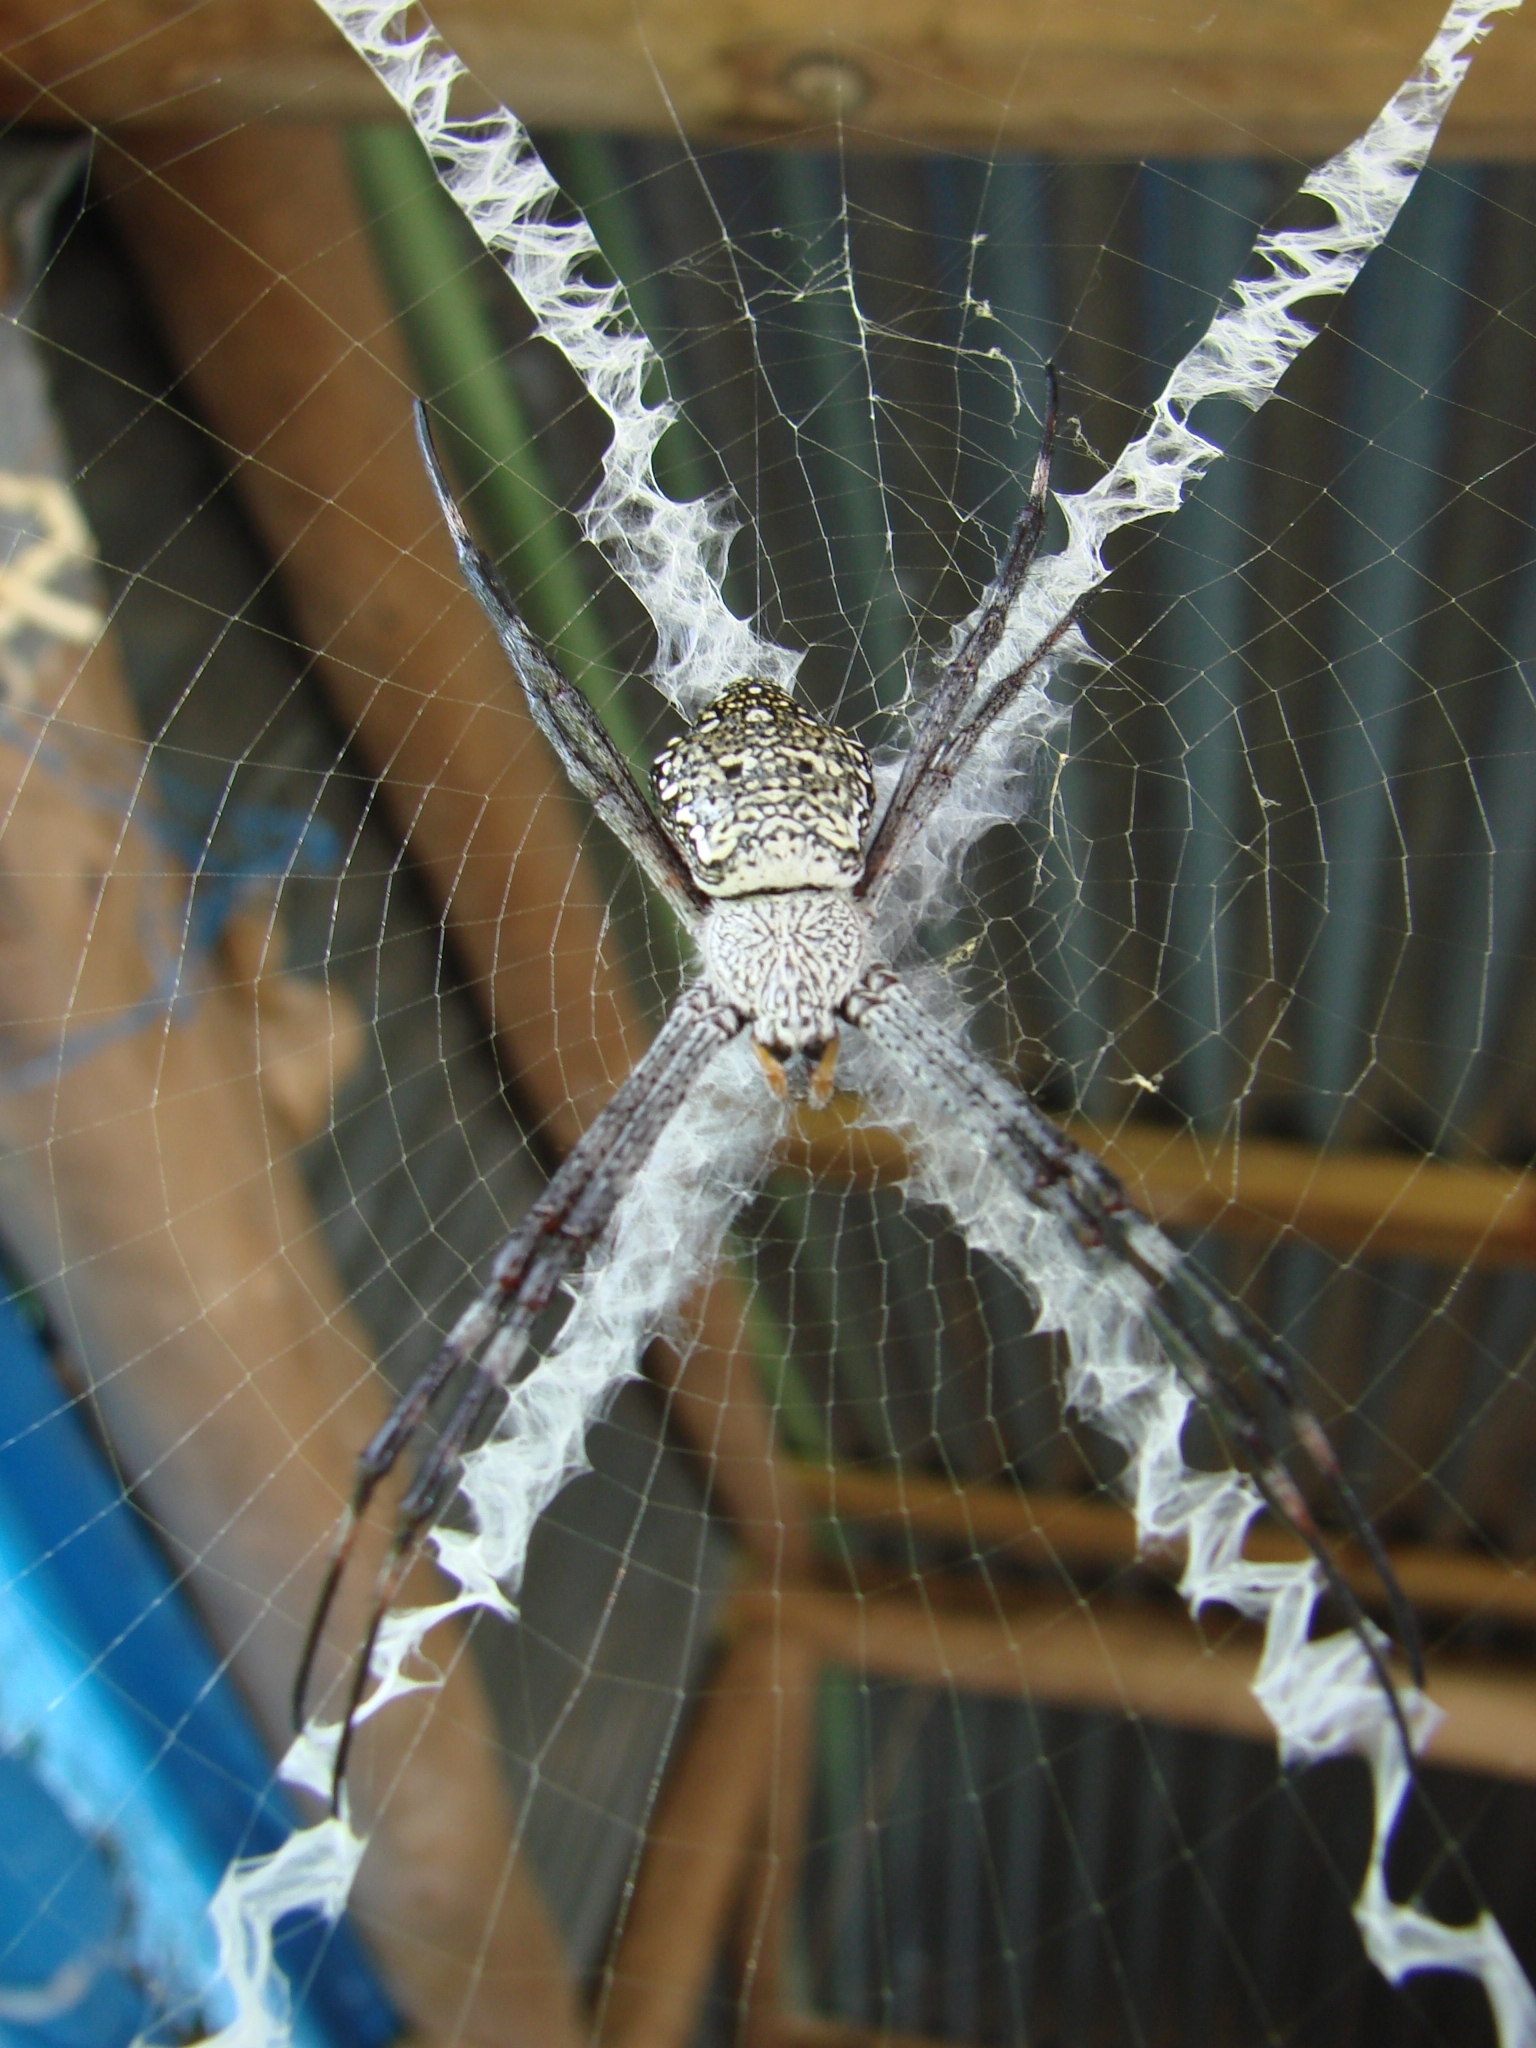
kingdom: Animalia
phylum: Arthropoda
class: Arachnida
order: Araneae
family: Araneidae
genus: Argiope
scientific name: Argiope appensa
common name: Garden spider
